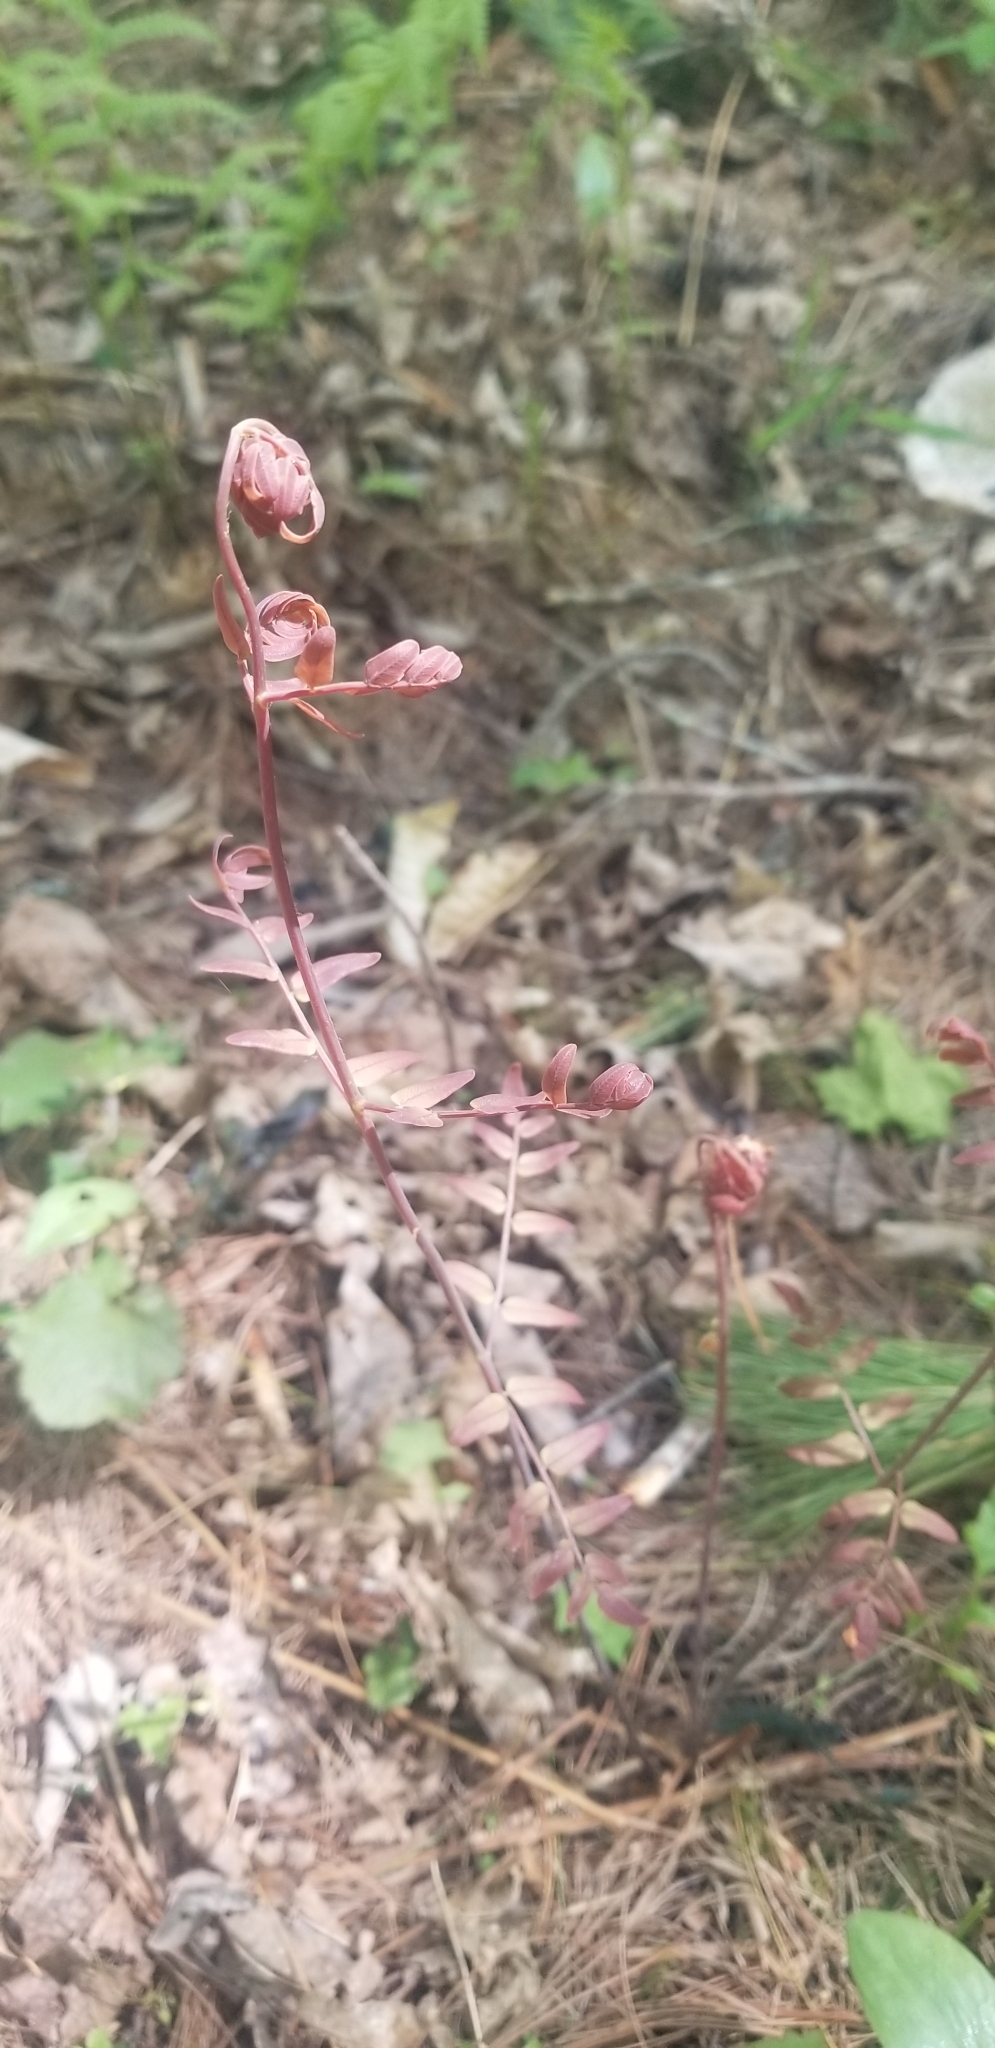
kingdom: Plantae
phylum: Tracheophyta
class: Polypodiopsida
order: Osmundales
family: Osmundaceae
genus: Osmunda
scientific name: Osmunda spectabilis
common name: American royal fern
